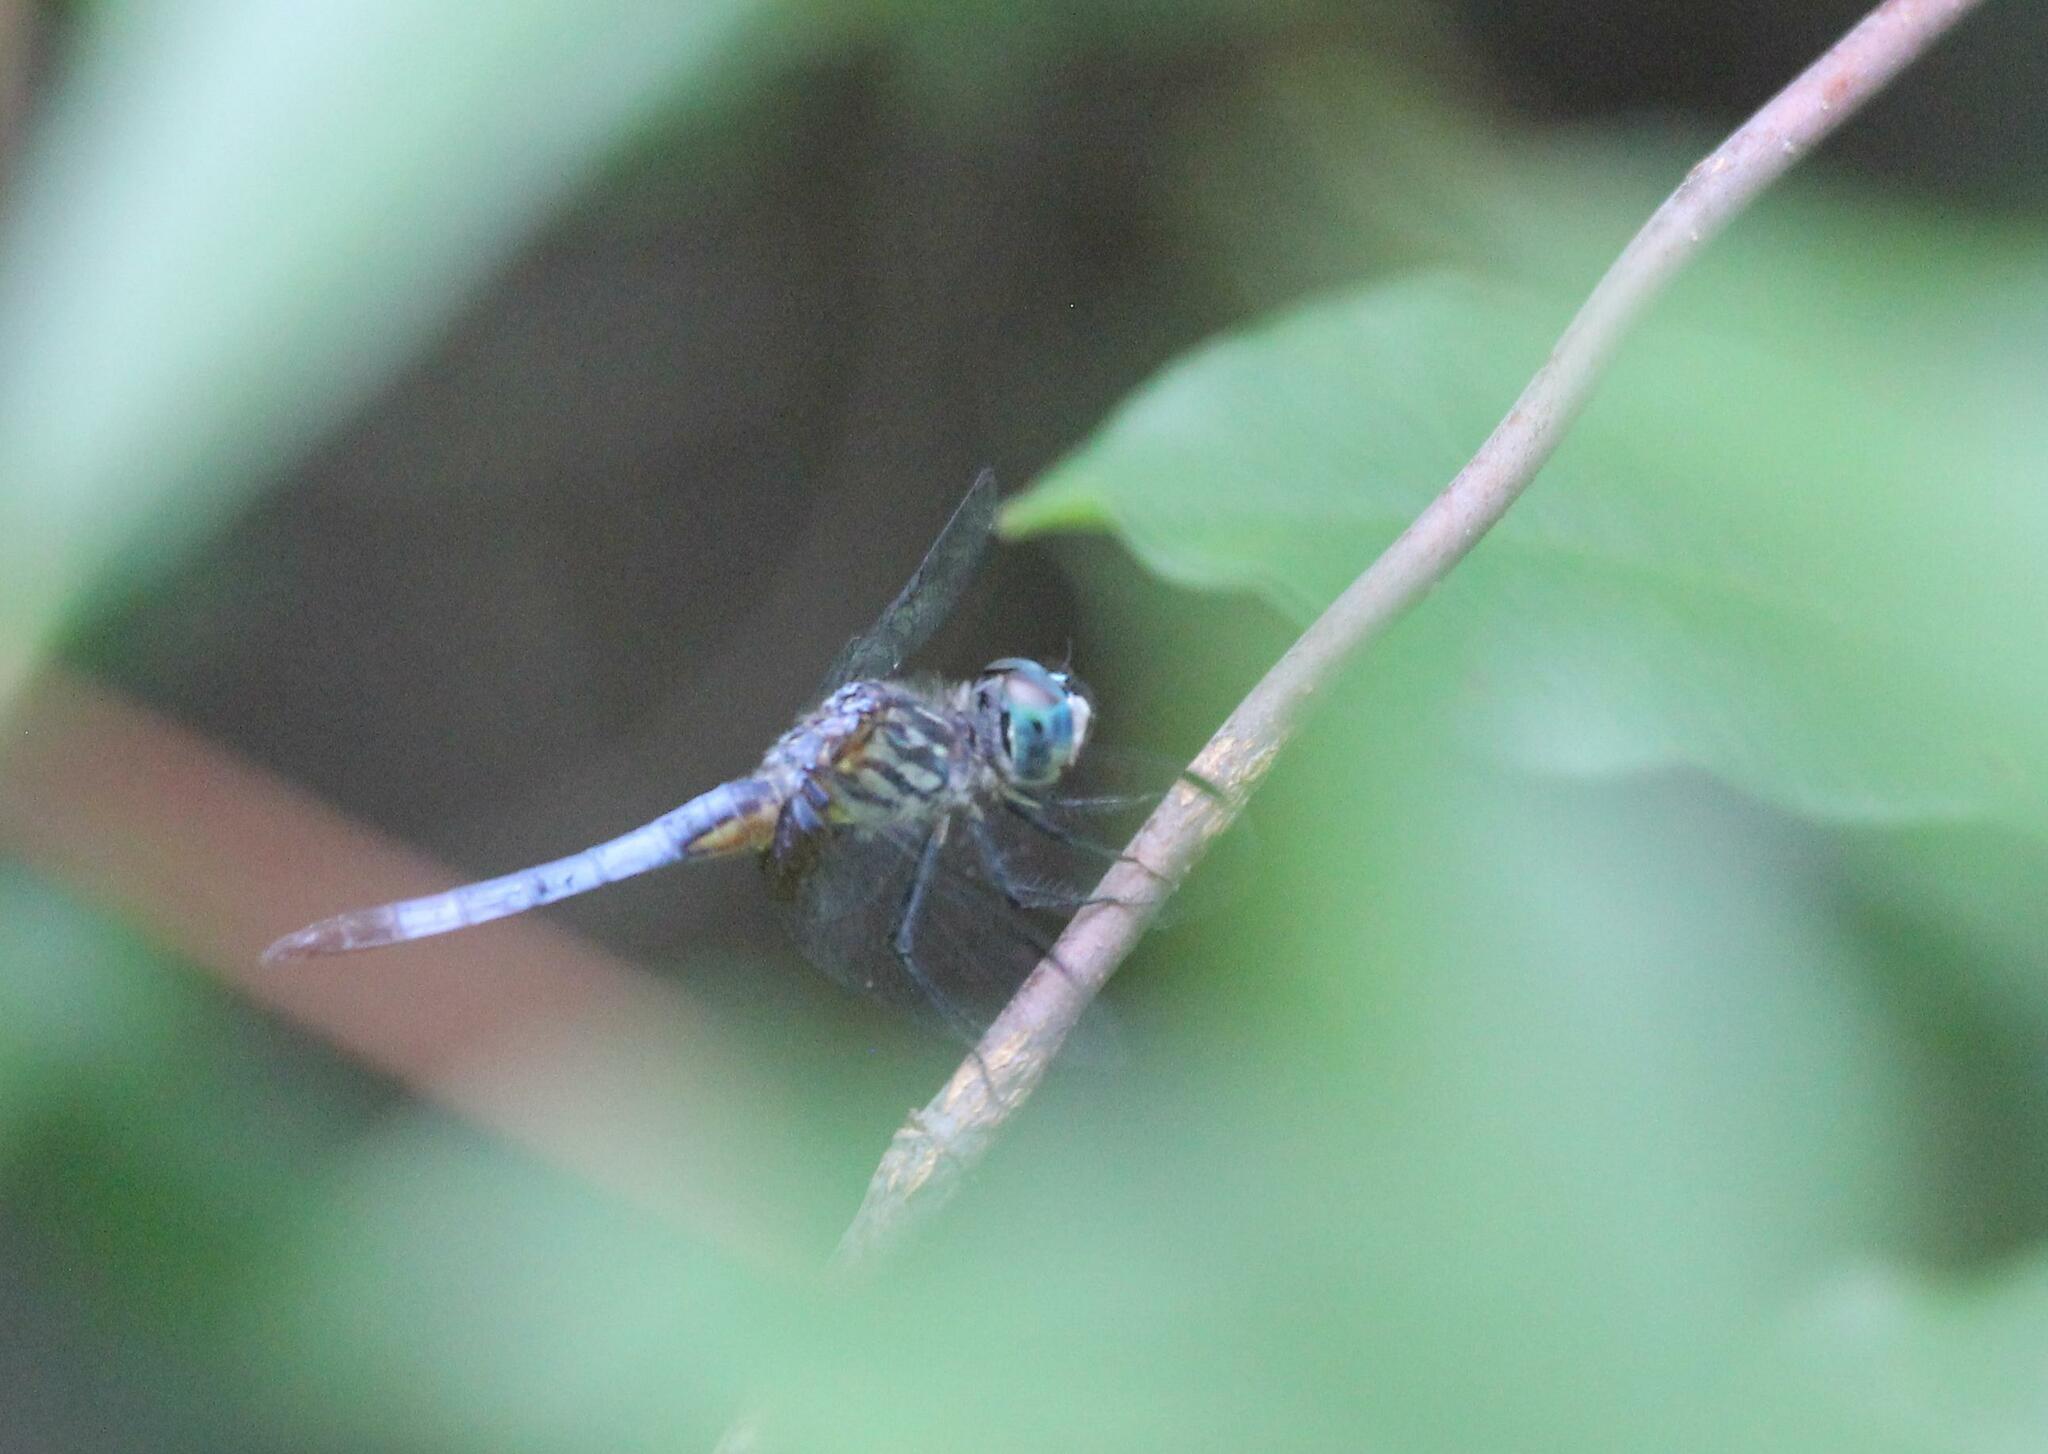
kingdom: Animalia
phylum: Arthropoda
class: Insecta
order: Odonata
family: Libellulidae
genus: Pachydiplax
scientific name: Pachydiplax longipennis
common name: Blue dasher
